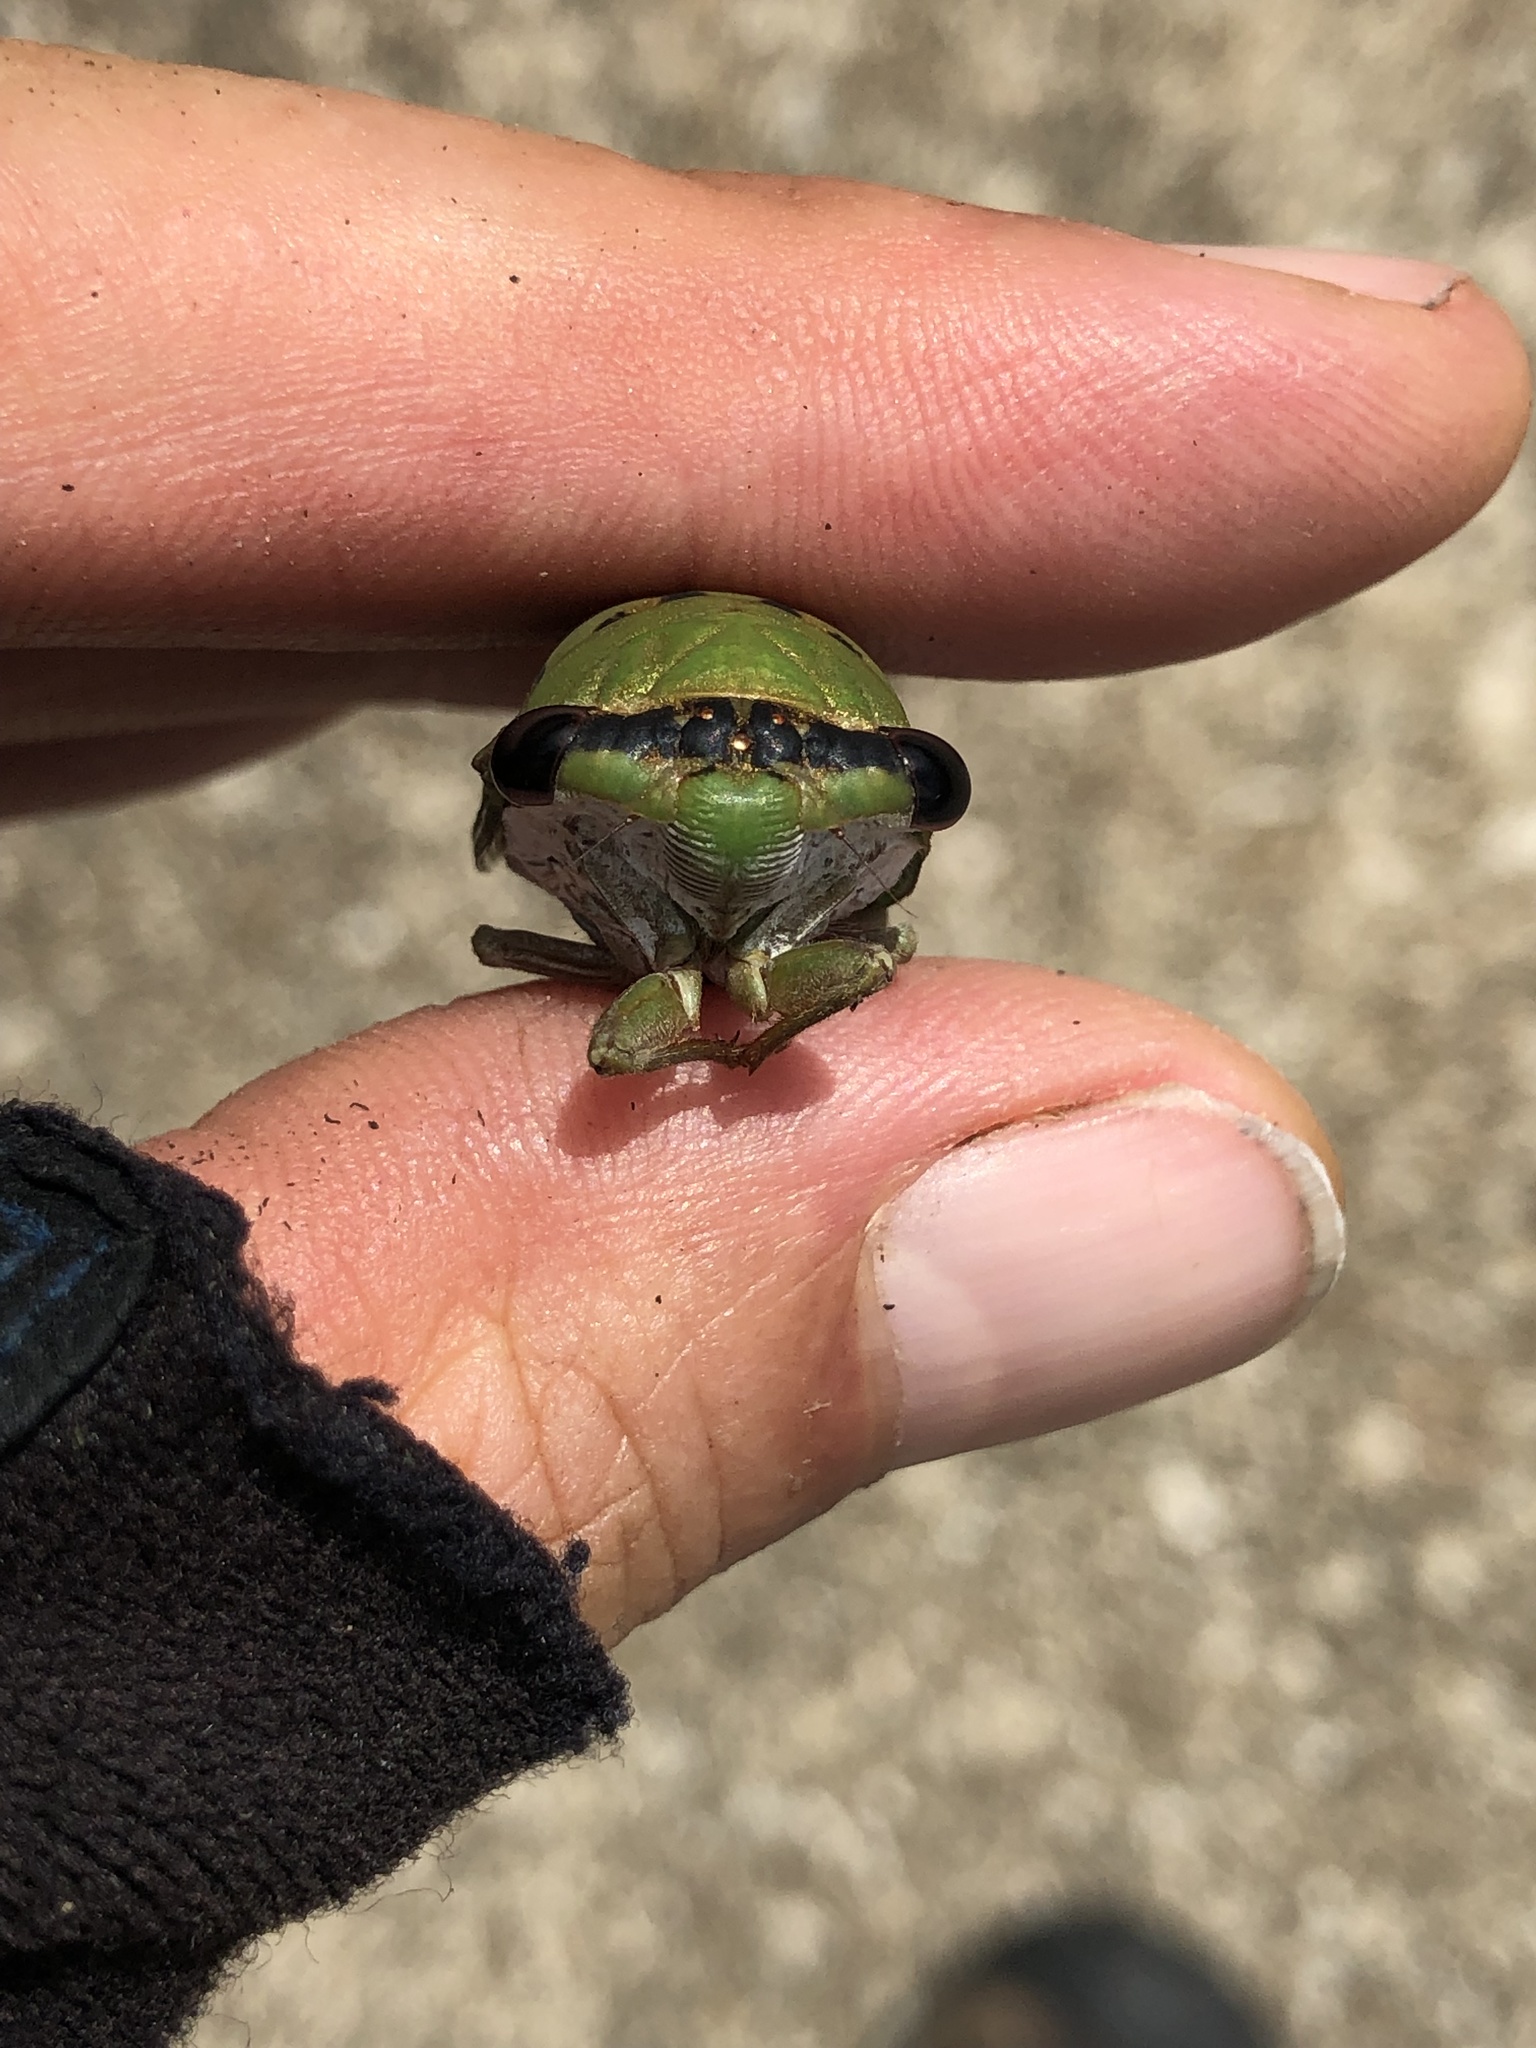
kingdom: Animalia
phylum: Arthropoda
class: Insecta
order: Hemiptera
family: Cicadidae
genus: Neotibicen
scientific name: Neotibicen superbus
